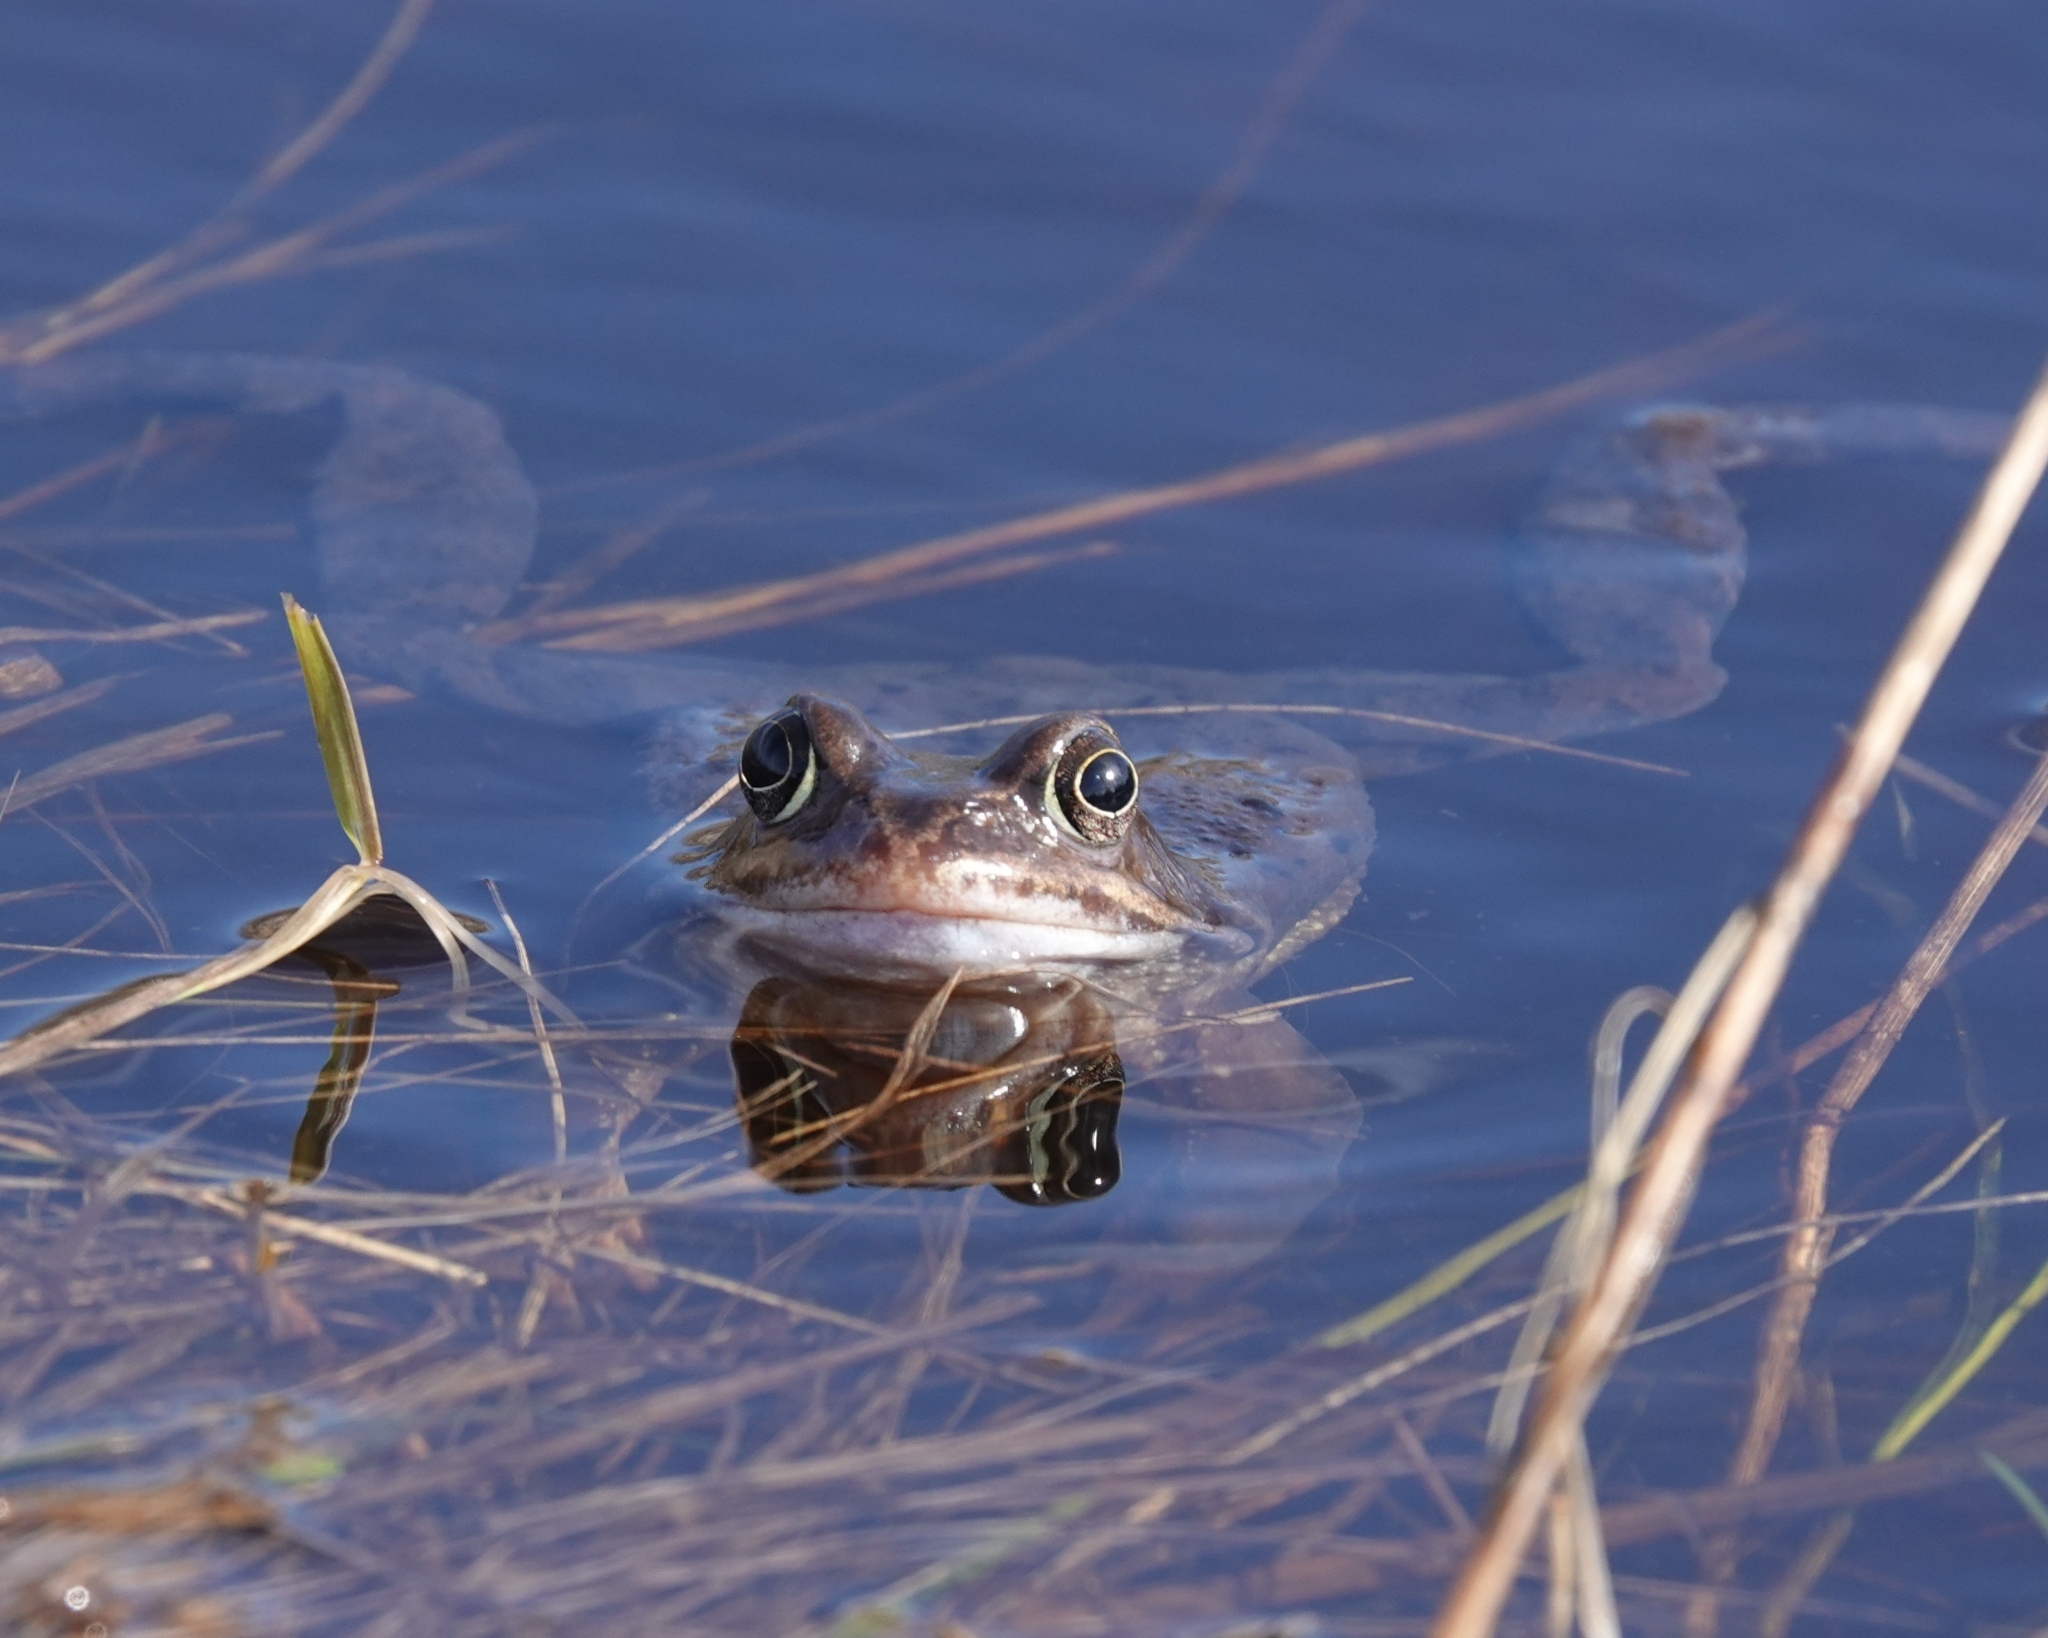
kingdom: Animalia
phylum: Chordata
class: Amphibia
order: Anura
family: Ranidae
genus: Rana
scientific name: Rana temporaria
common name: Common frog
